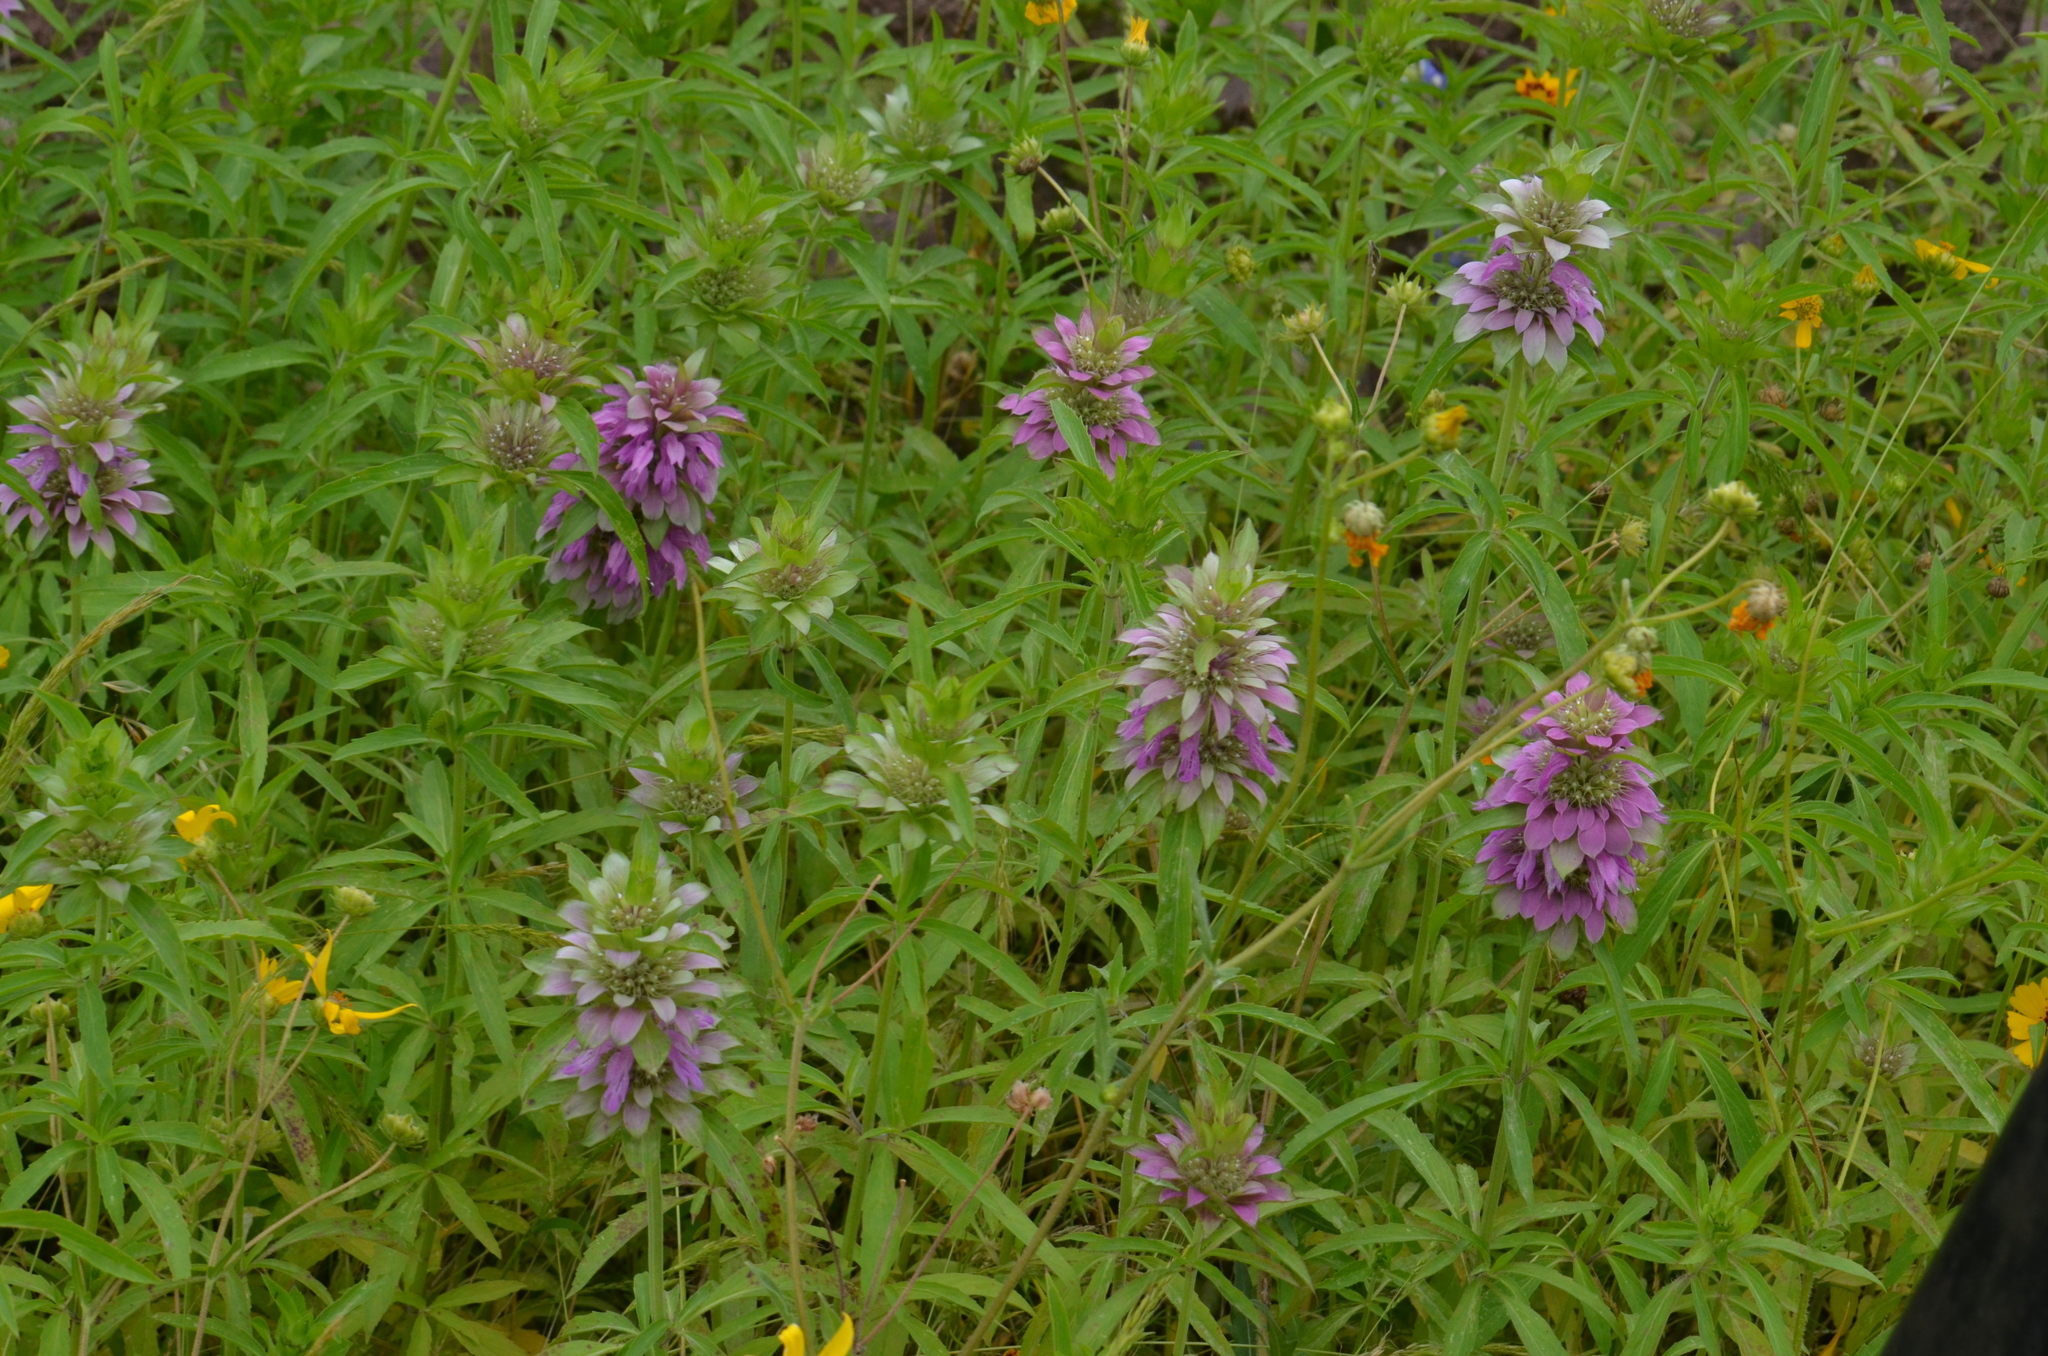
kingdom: Plantae
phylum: Tracheophyta
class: Magnoliopsida
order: Lamiales
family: Lamiaceae
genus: Monarda
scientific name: Monarda citriodora
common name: Lemon beebalm
